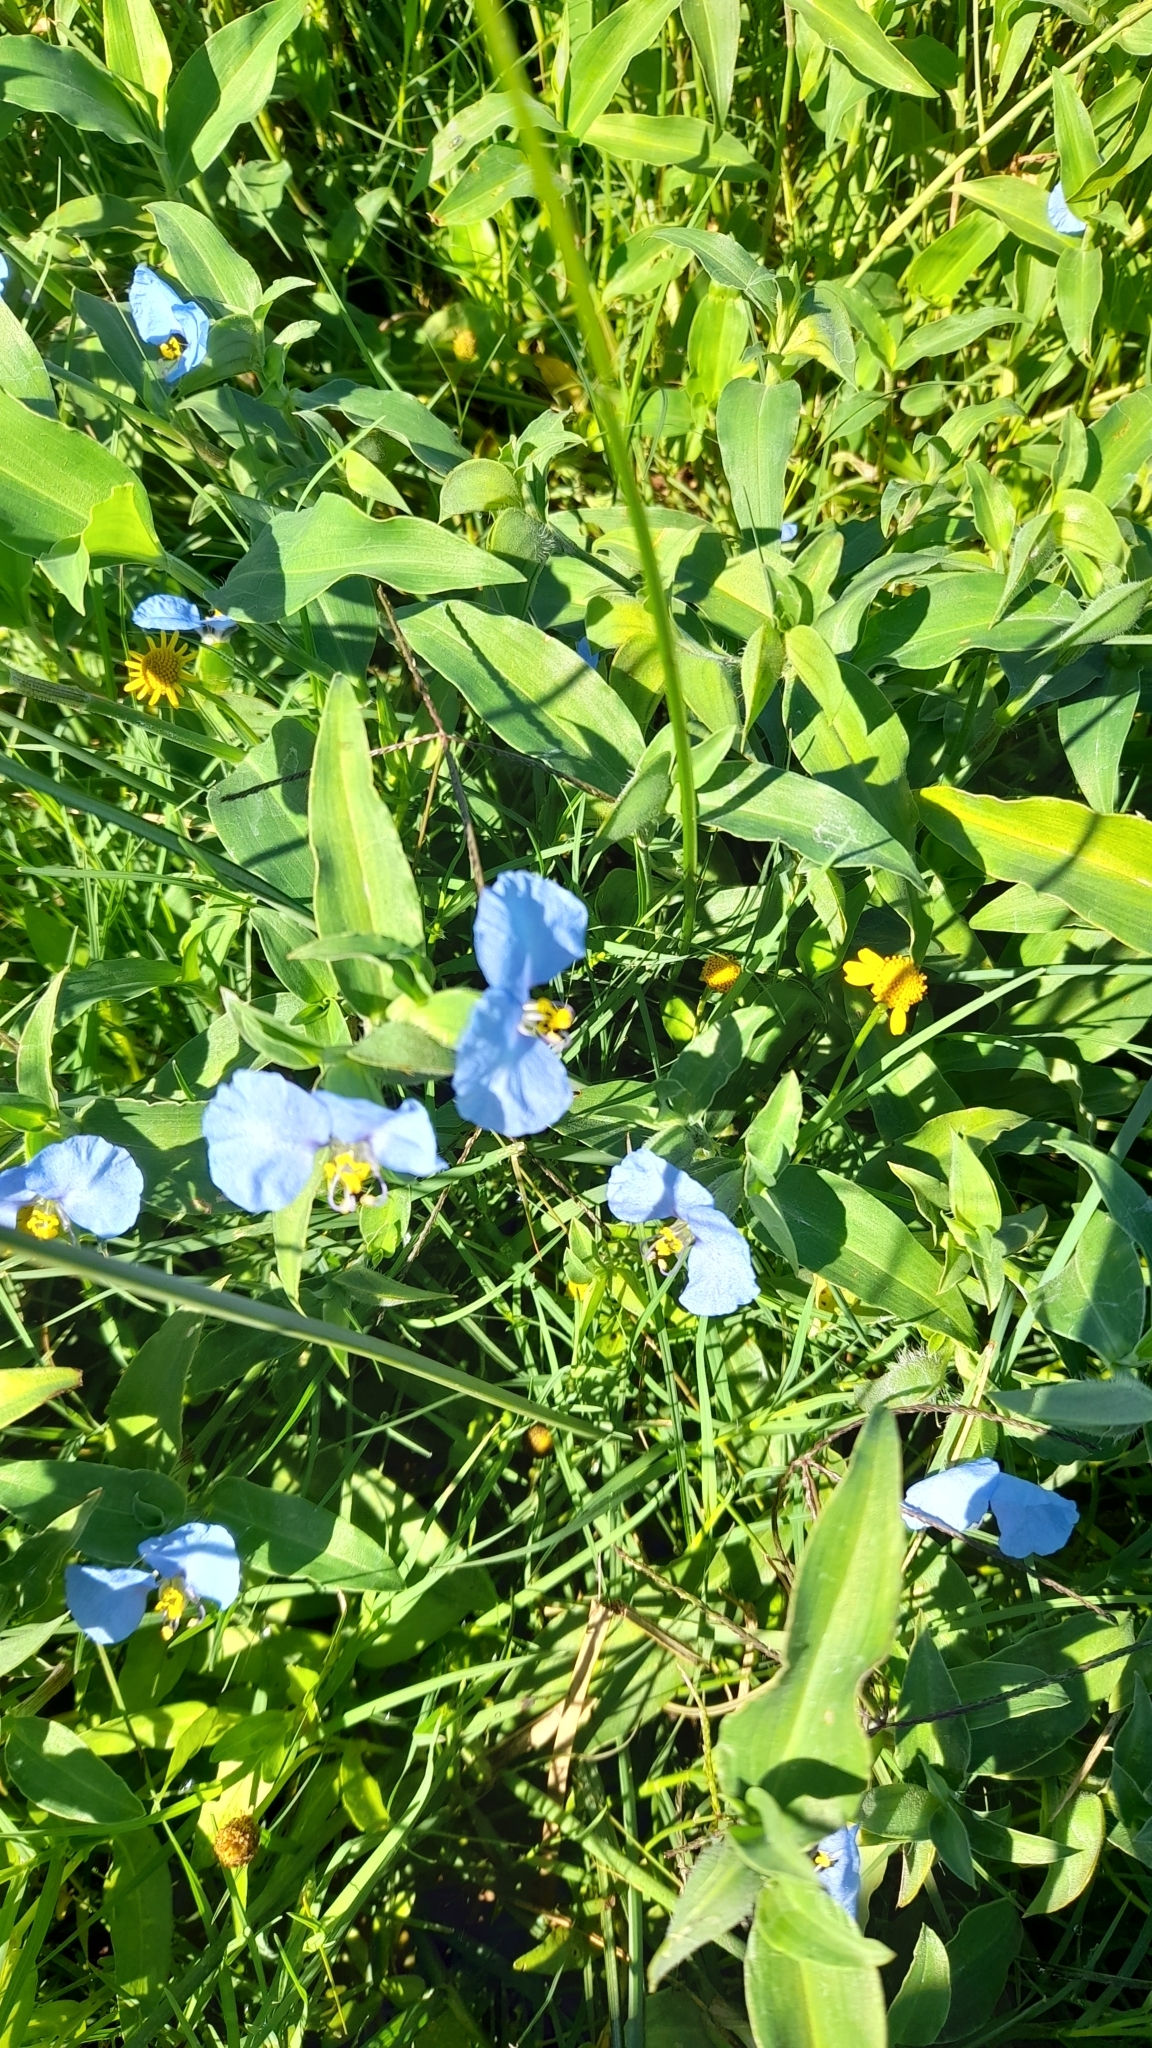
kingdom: Plantae
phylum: Tracheophyta
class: Liliopsida
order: Commelinales
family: Commelinaceae
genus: Commelina
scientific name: Commelina erecta
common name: Blousel blommetjie
